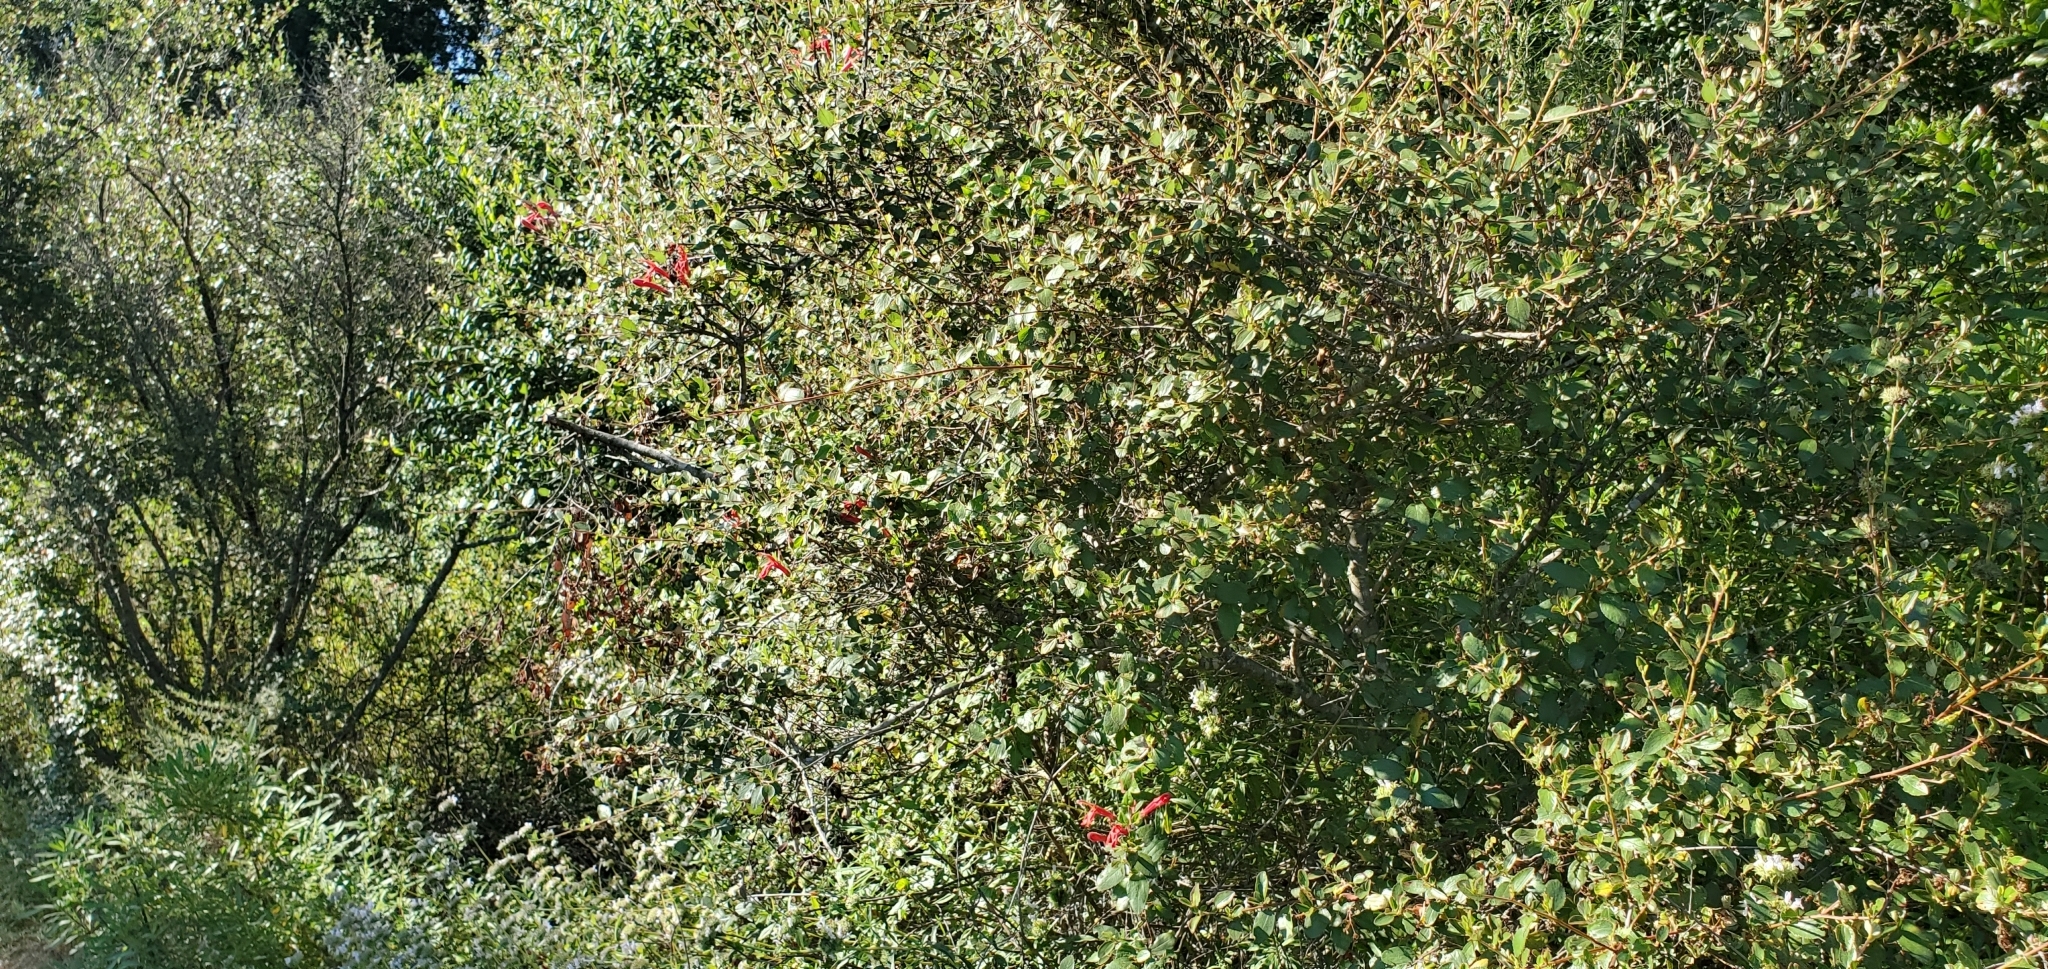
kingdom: Plantae
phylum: Tracheophyta
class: Magnoliopsida
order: Lamiales
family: Plantaginaceae
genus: Keckiella
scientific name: Keckiella cordifolia
